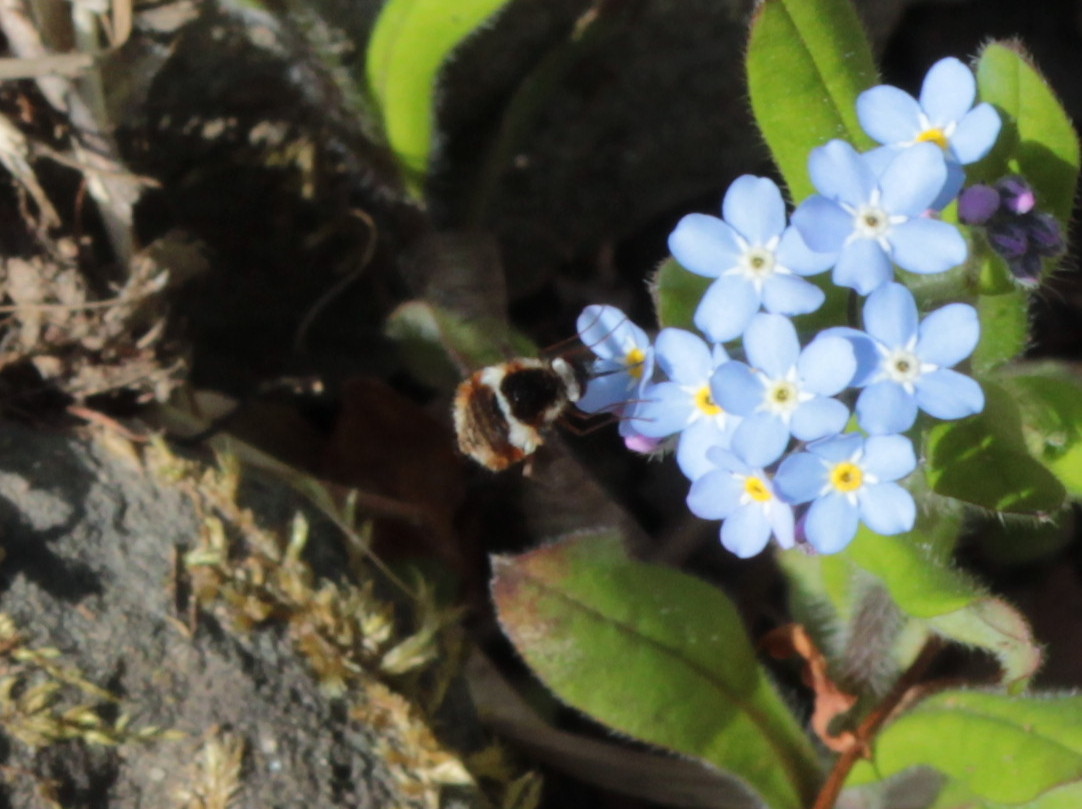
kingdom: Animalia
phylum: Arthropoda
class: Insecta
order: Diptera
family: Bombyliidae
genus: Bombylius
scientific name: Bombylius pygmaeus
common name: Pygmy bee fly
